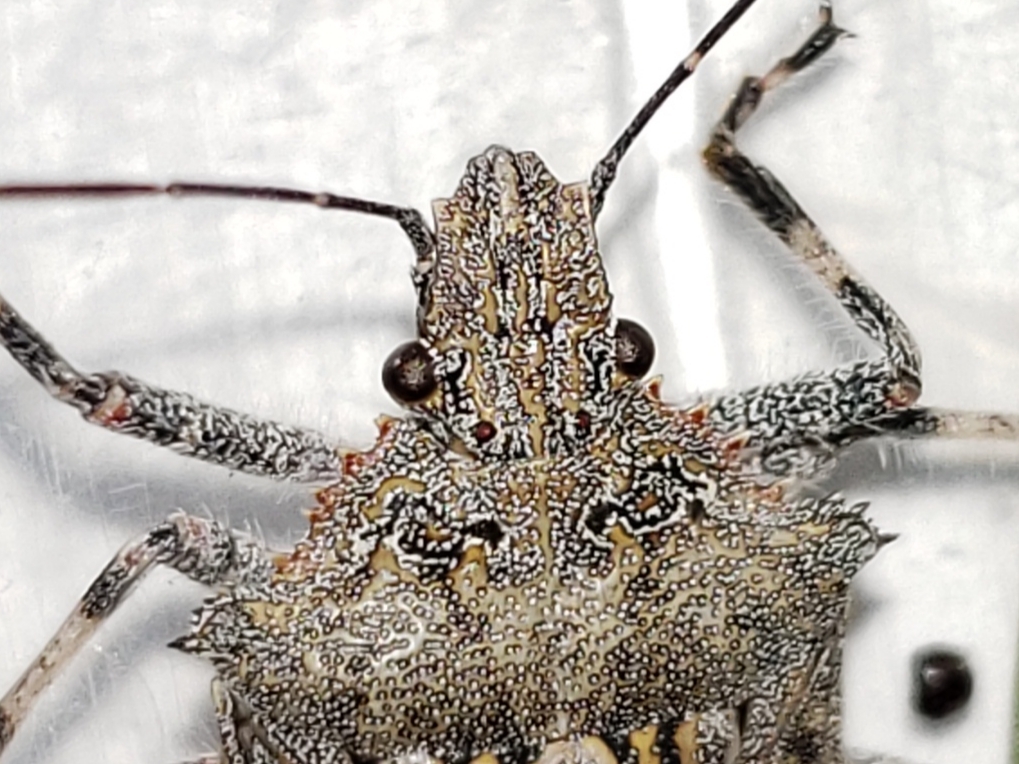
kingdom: Animalia
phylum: Arthropoda
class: Insecta
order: Hemiptera
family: Pentatomidae
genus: Brochymena
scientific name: Brochymena florida
